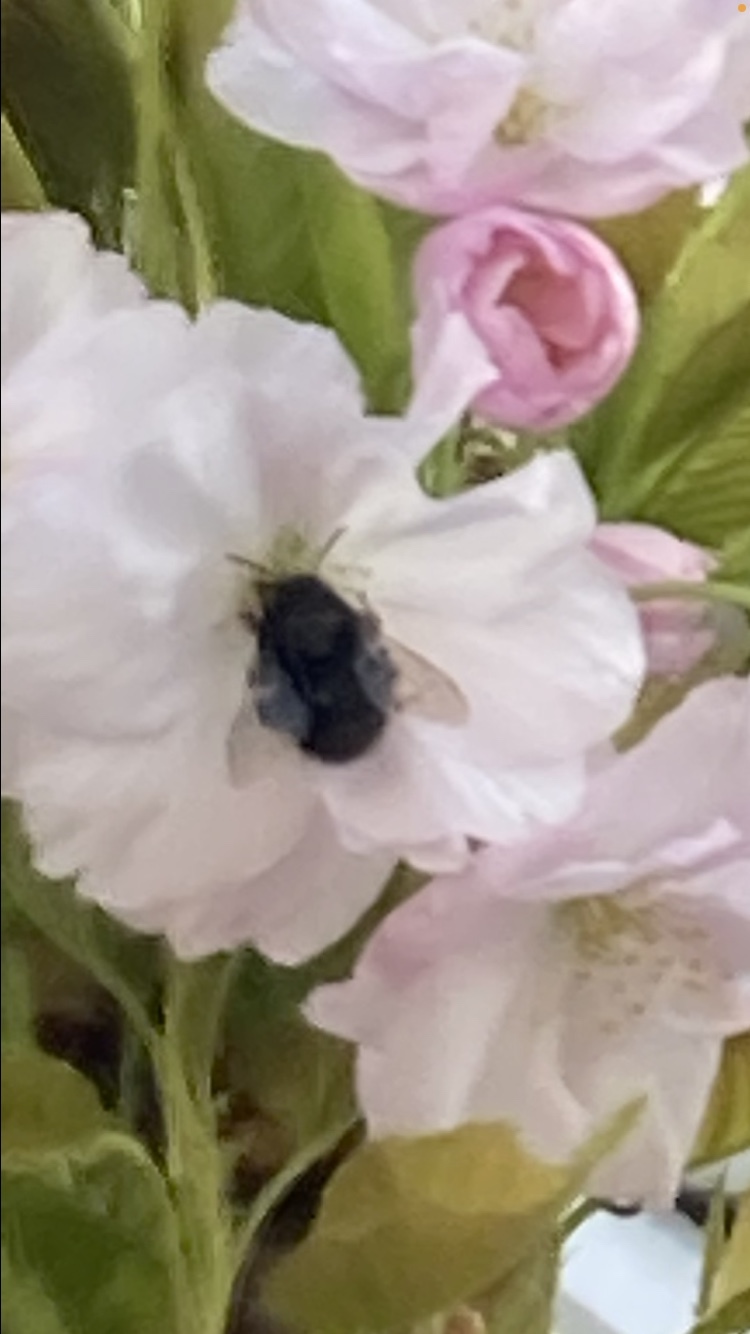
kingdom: Animalia
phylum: Arthropoda
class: Insecta
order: Hymenoptera
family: Apidae
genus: Anthophora
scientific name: Anthophora plumipes
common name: Hairy-footed flower bee
